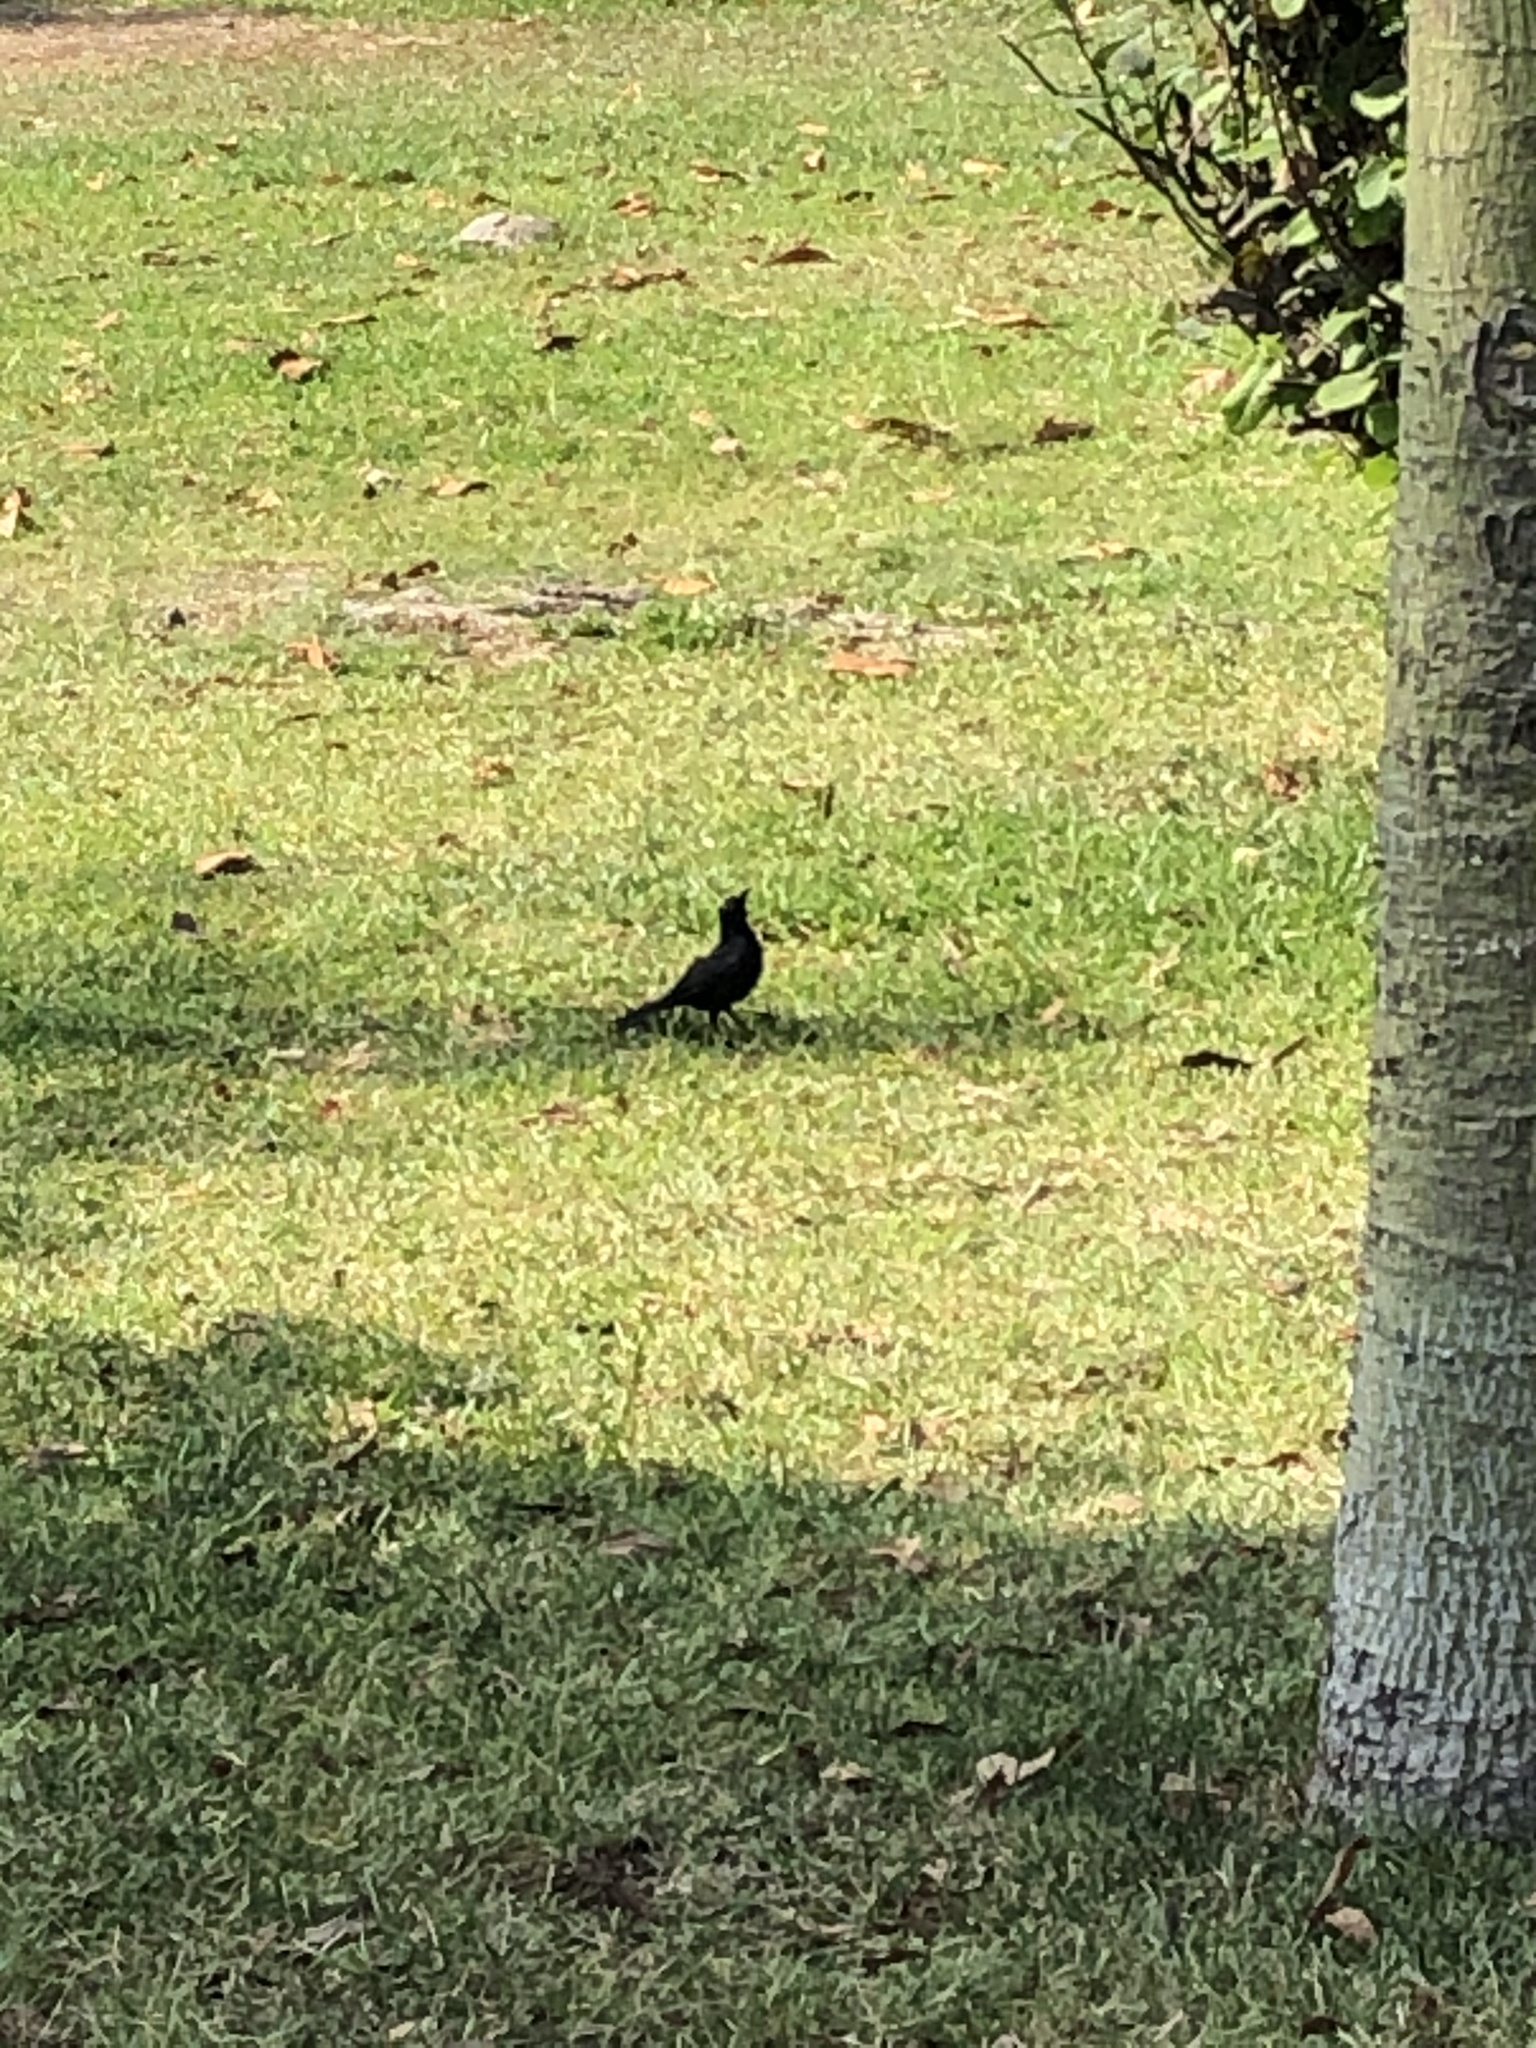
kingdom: Animalia
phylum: Chordata
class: Aves
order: Passeriformes
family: Icteridae
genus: Dives
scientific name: Dives warczewiczi
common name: Scrub blackbird
